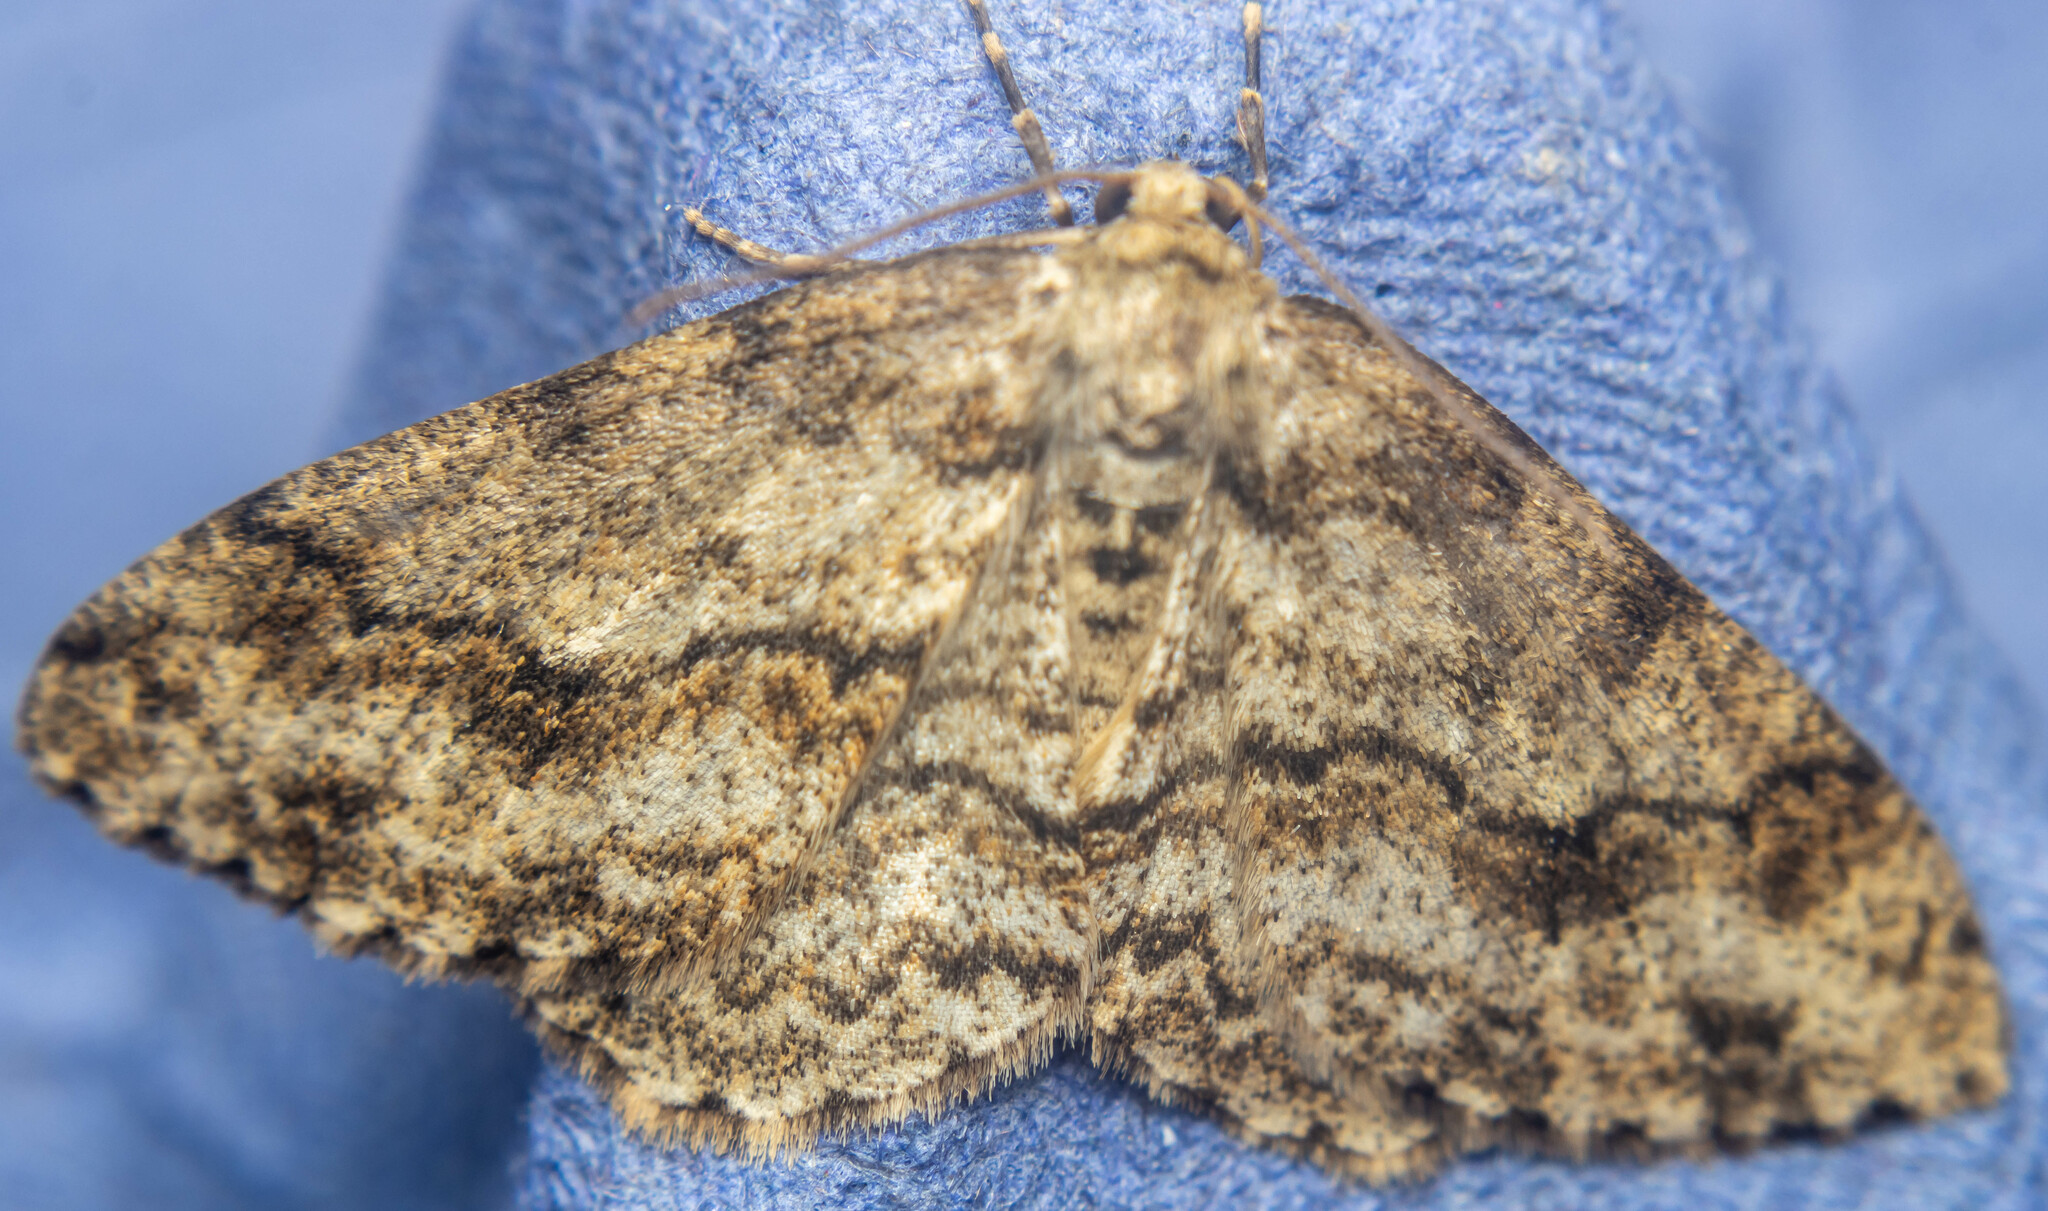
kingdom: Animalia
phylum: Arthropoda
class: Insecta
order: Lepidoptera
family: Geometridae
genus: Ectropis
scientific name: Ectropis crepuscularia
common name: Engrailed
